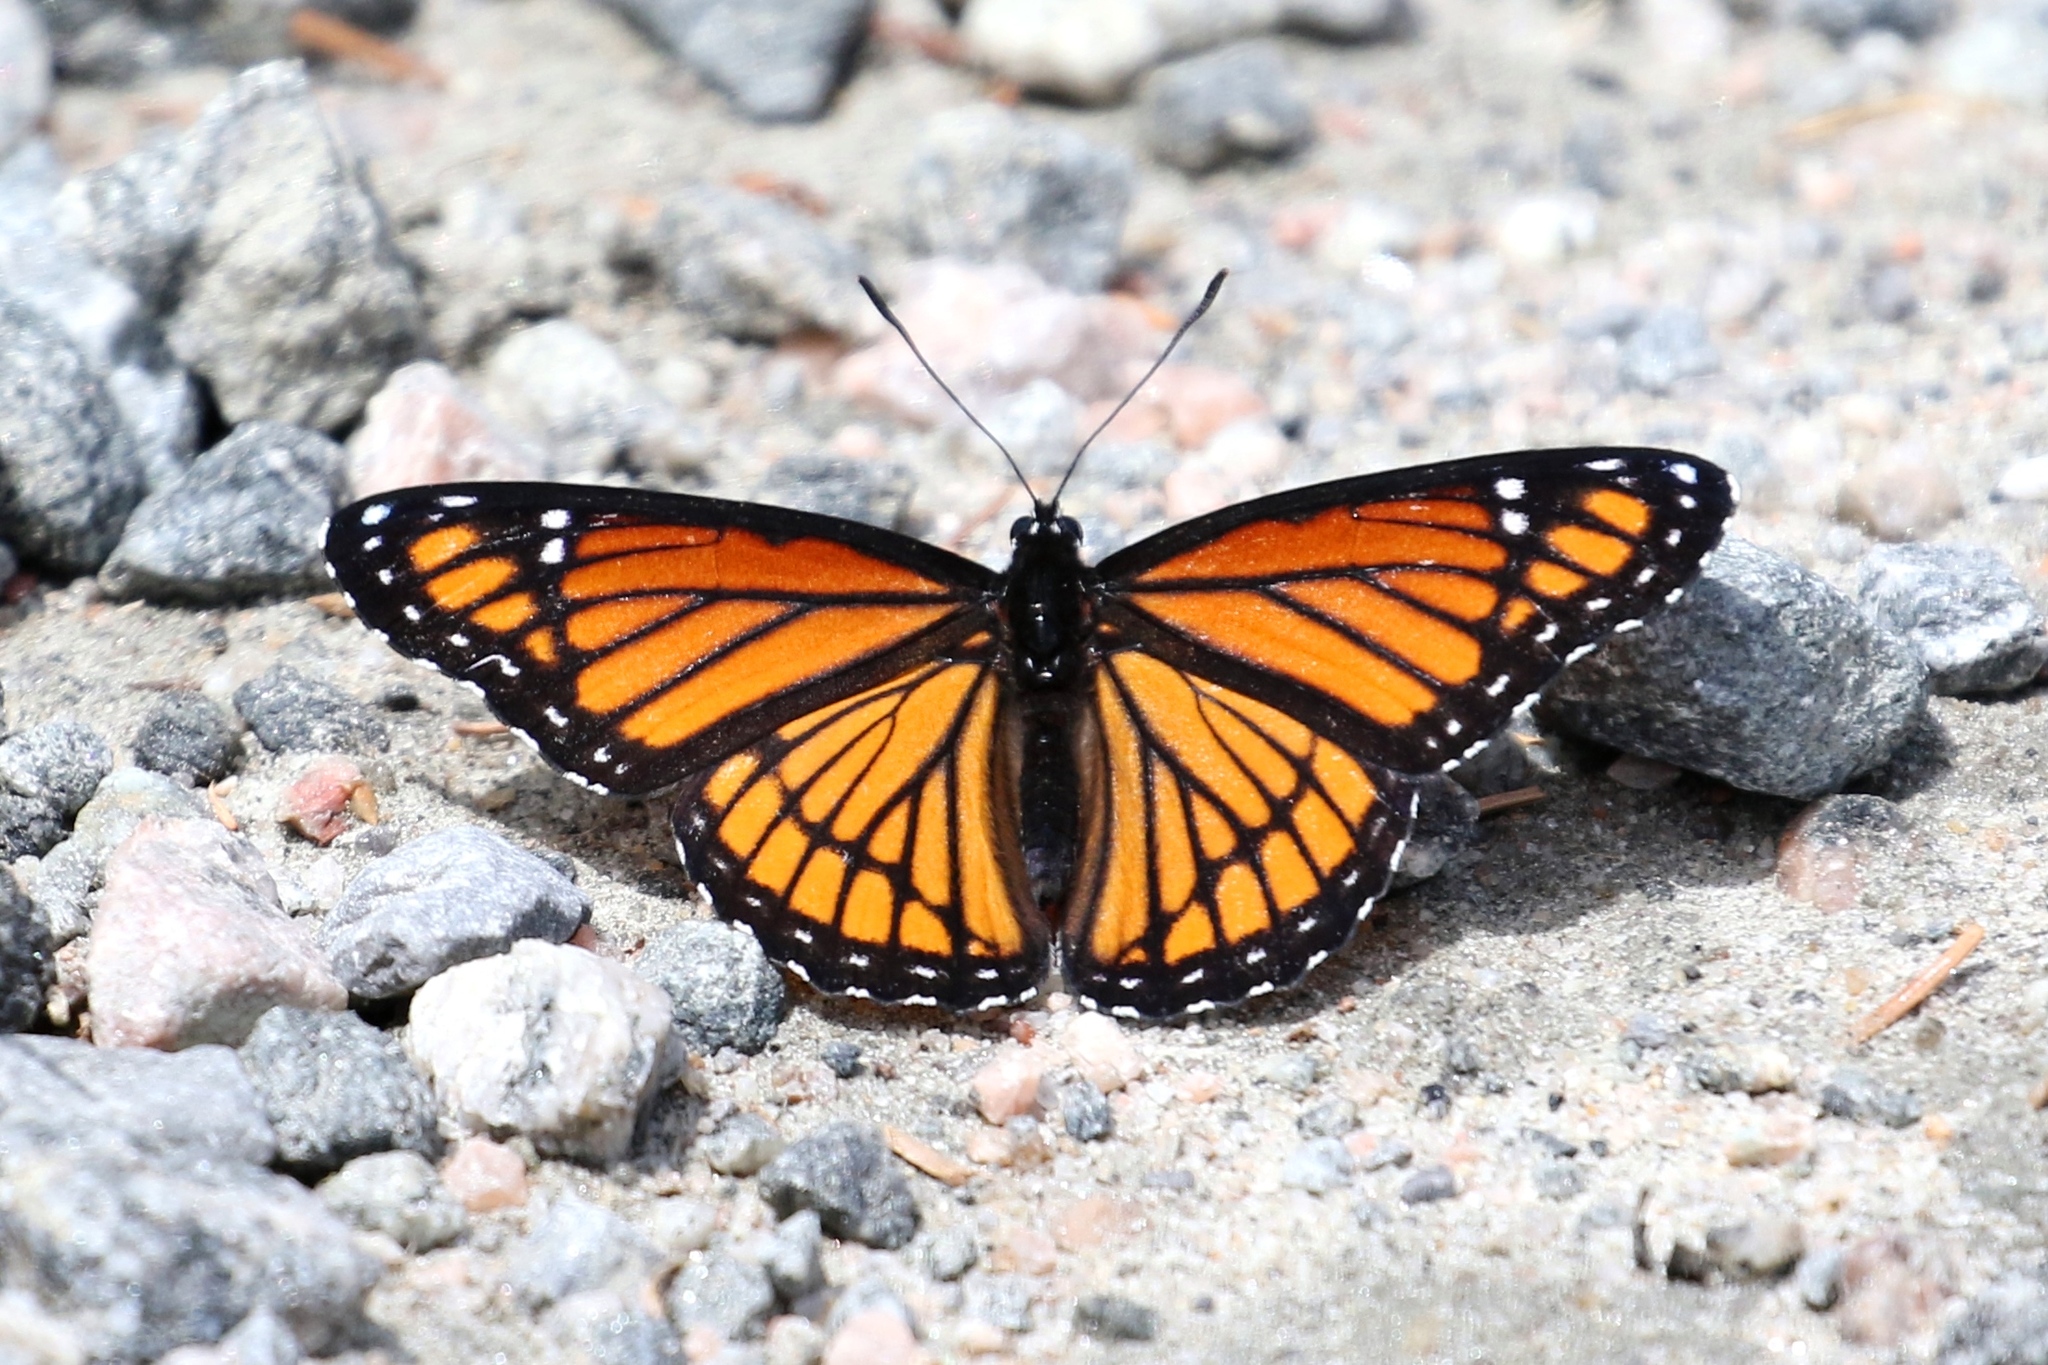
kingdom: Animalia
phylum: Arthropoda
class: Insecta
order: Lepidoptera
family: Nymphalidae
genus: Limenitis
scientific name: Limenitis archippus
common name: Viceroy
